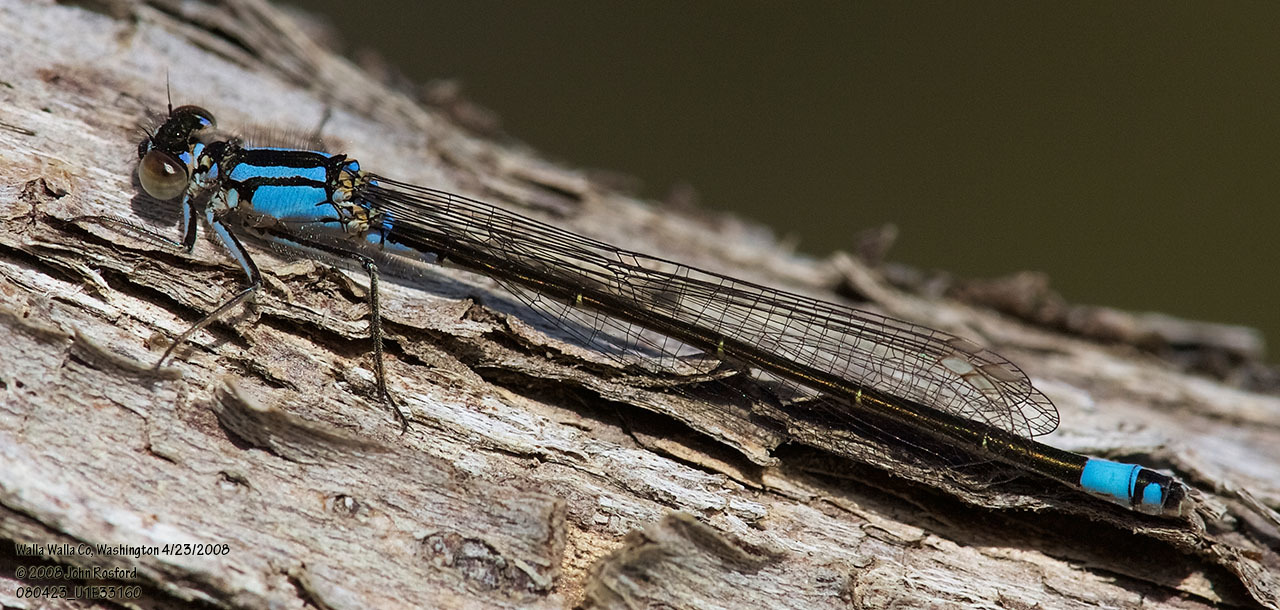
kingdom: Animalia
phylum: Arthropoda
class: Insecta
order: Odonata
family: Coenagrionidae
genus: Ischnura
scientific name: Ischnura cervula
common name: Pacific forktail
